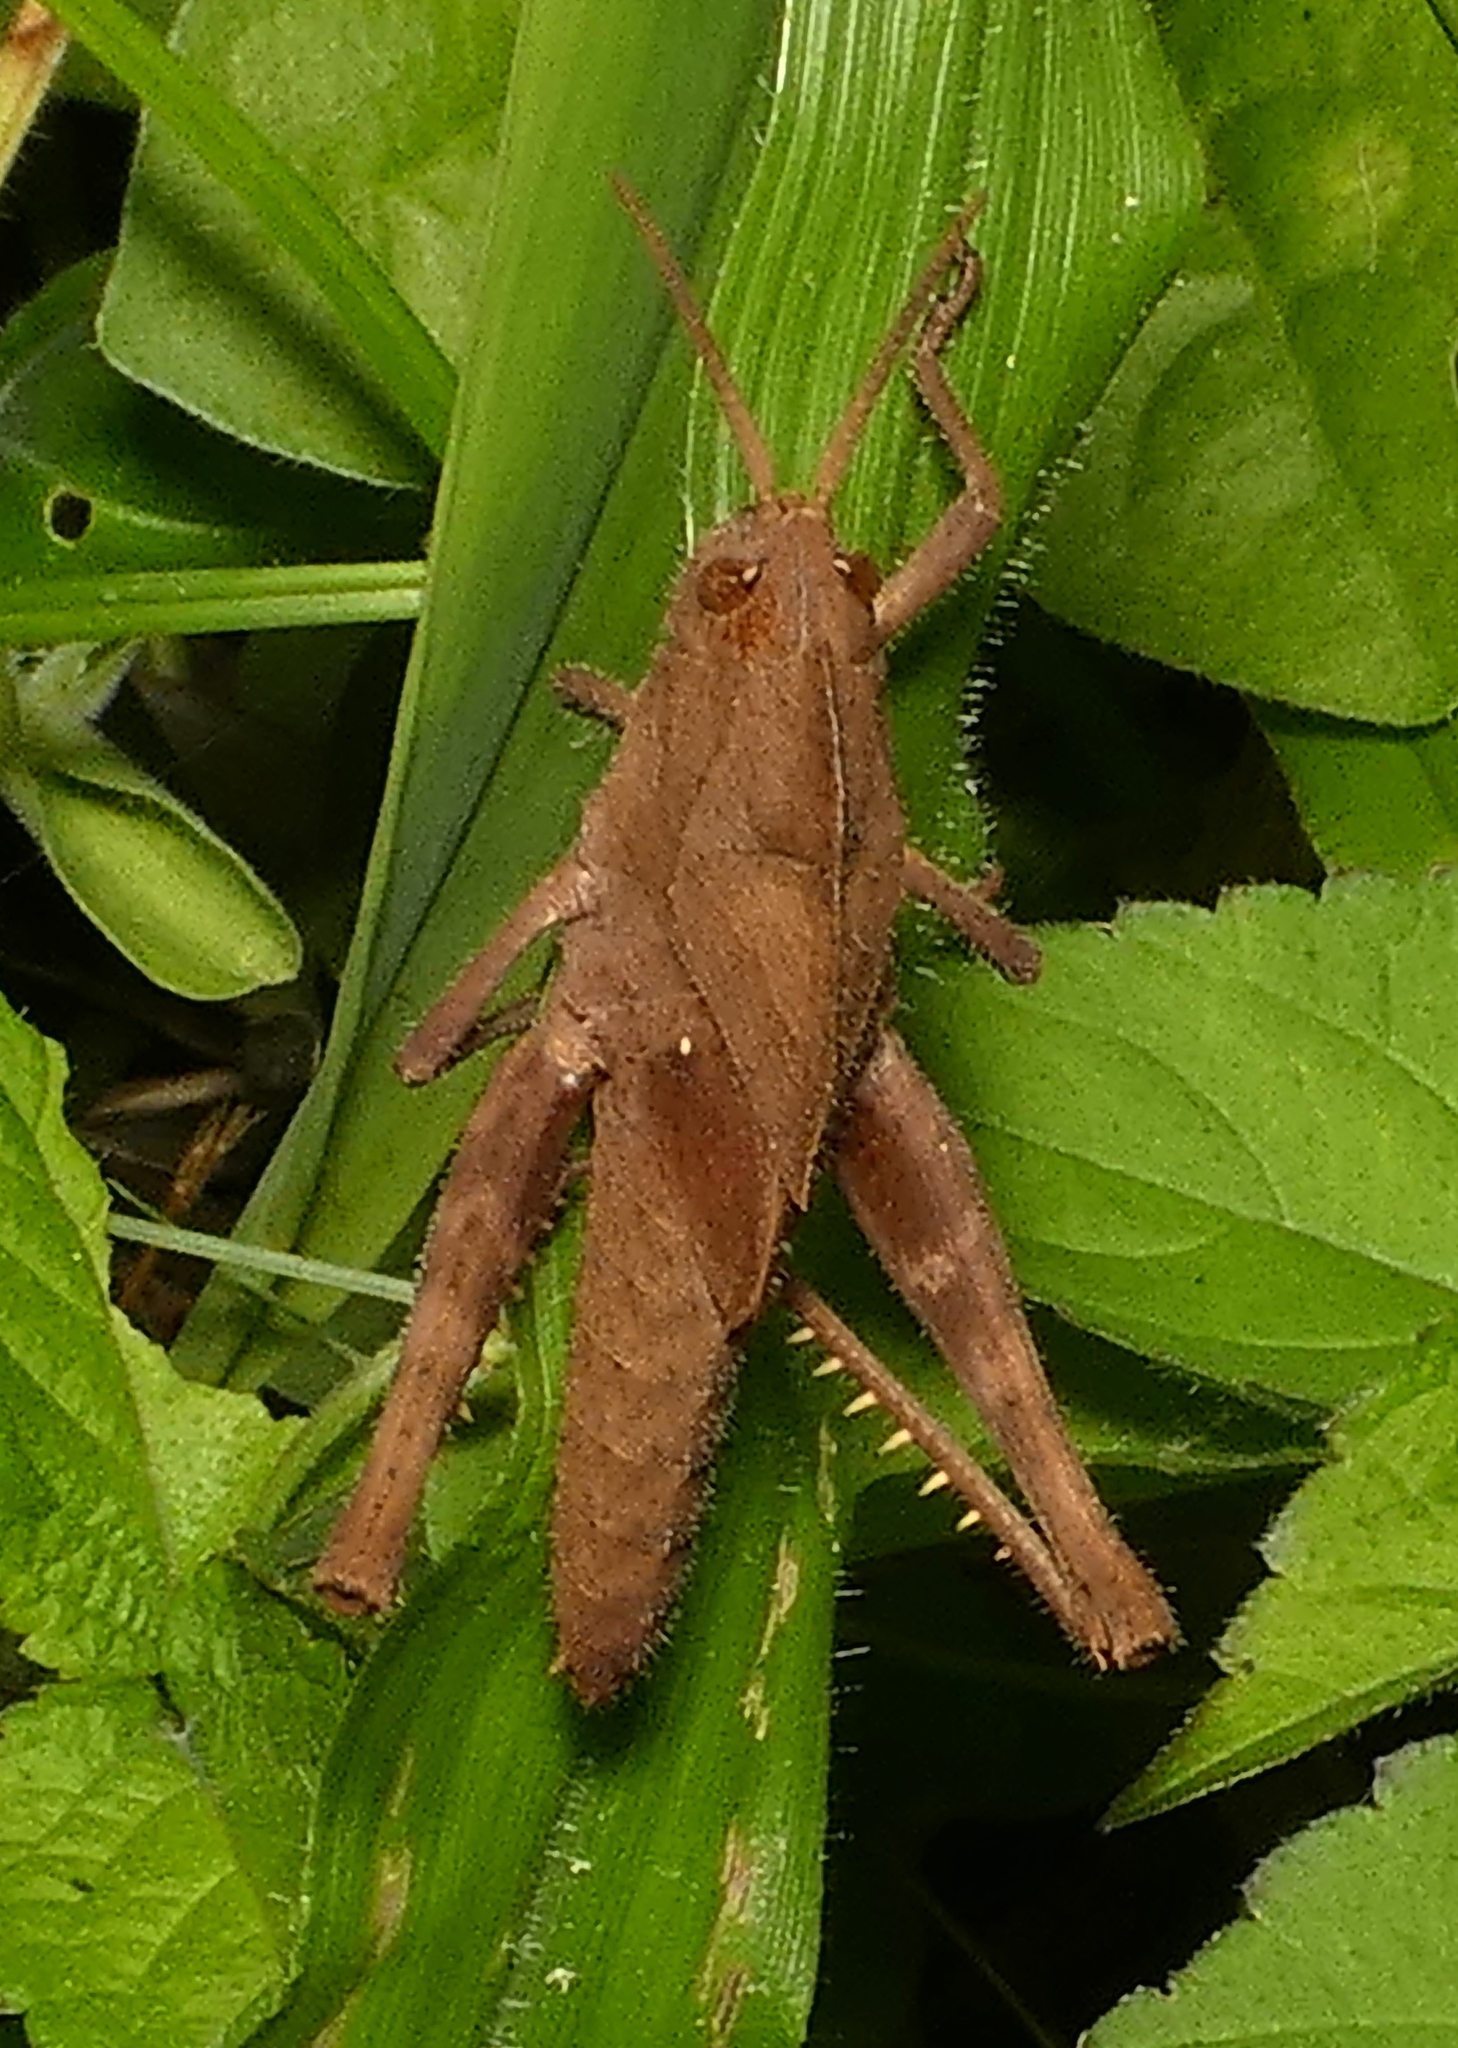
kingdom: Animalia
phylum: Arthropoda
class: Insecta
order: Orthoptera
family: Romaleidae
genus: Xyleus
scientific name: Xyleus discoideus
